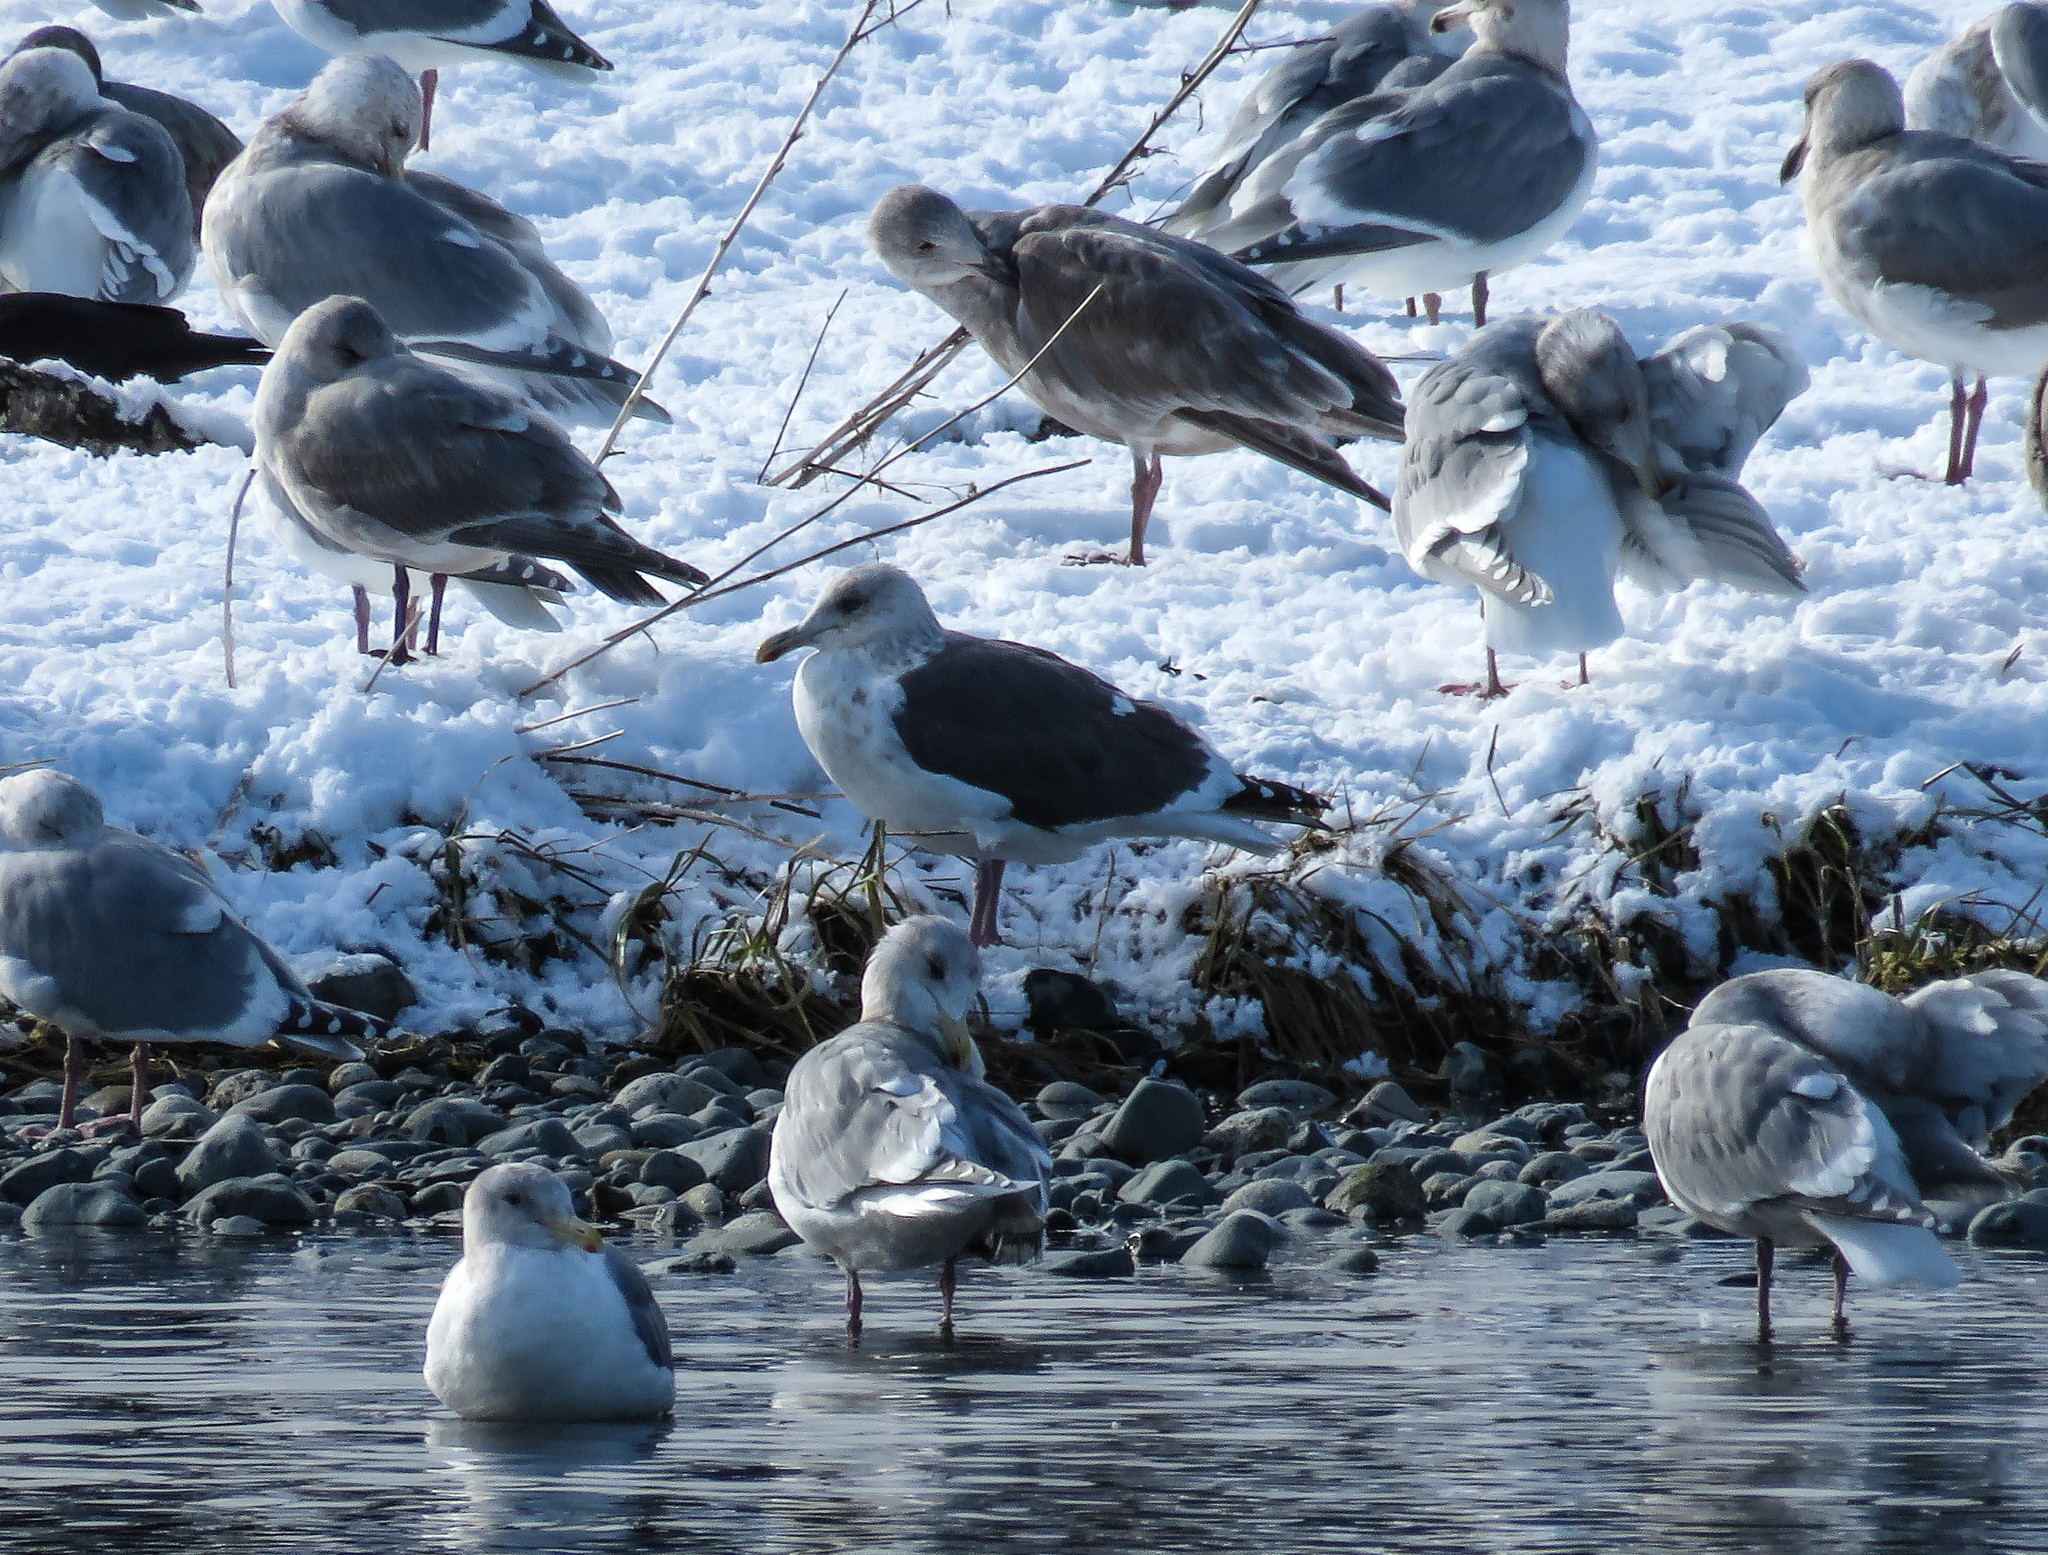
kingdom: Animalia
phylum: Chordata
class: Aves
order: Charadriiformes
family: Laridae
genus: Larus
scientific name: Larus schistisagus
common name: Slaty-backed gull
